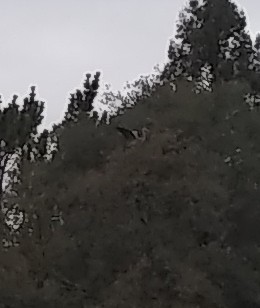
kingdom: Animalia
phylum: Chordata
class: Aves
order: Pelecaniformes
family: Ardeidae
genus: Ardea
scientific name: Ardea herodias
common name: Great blue heron
